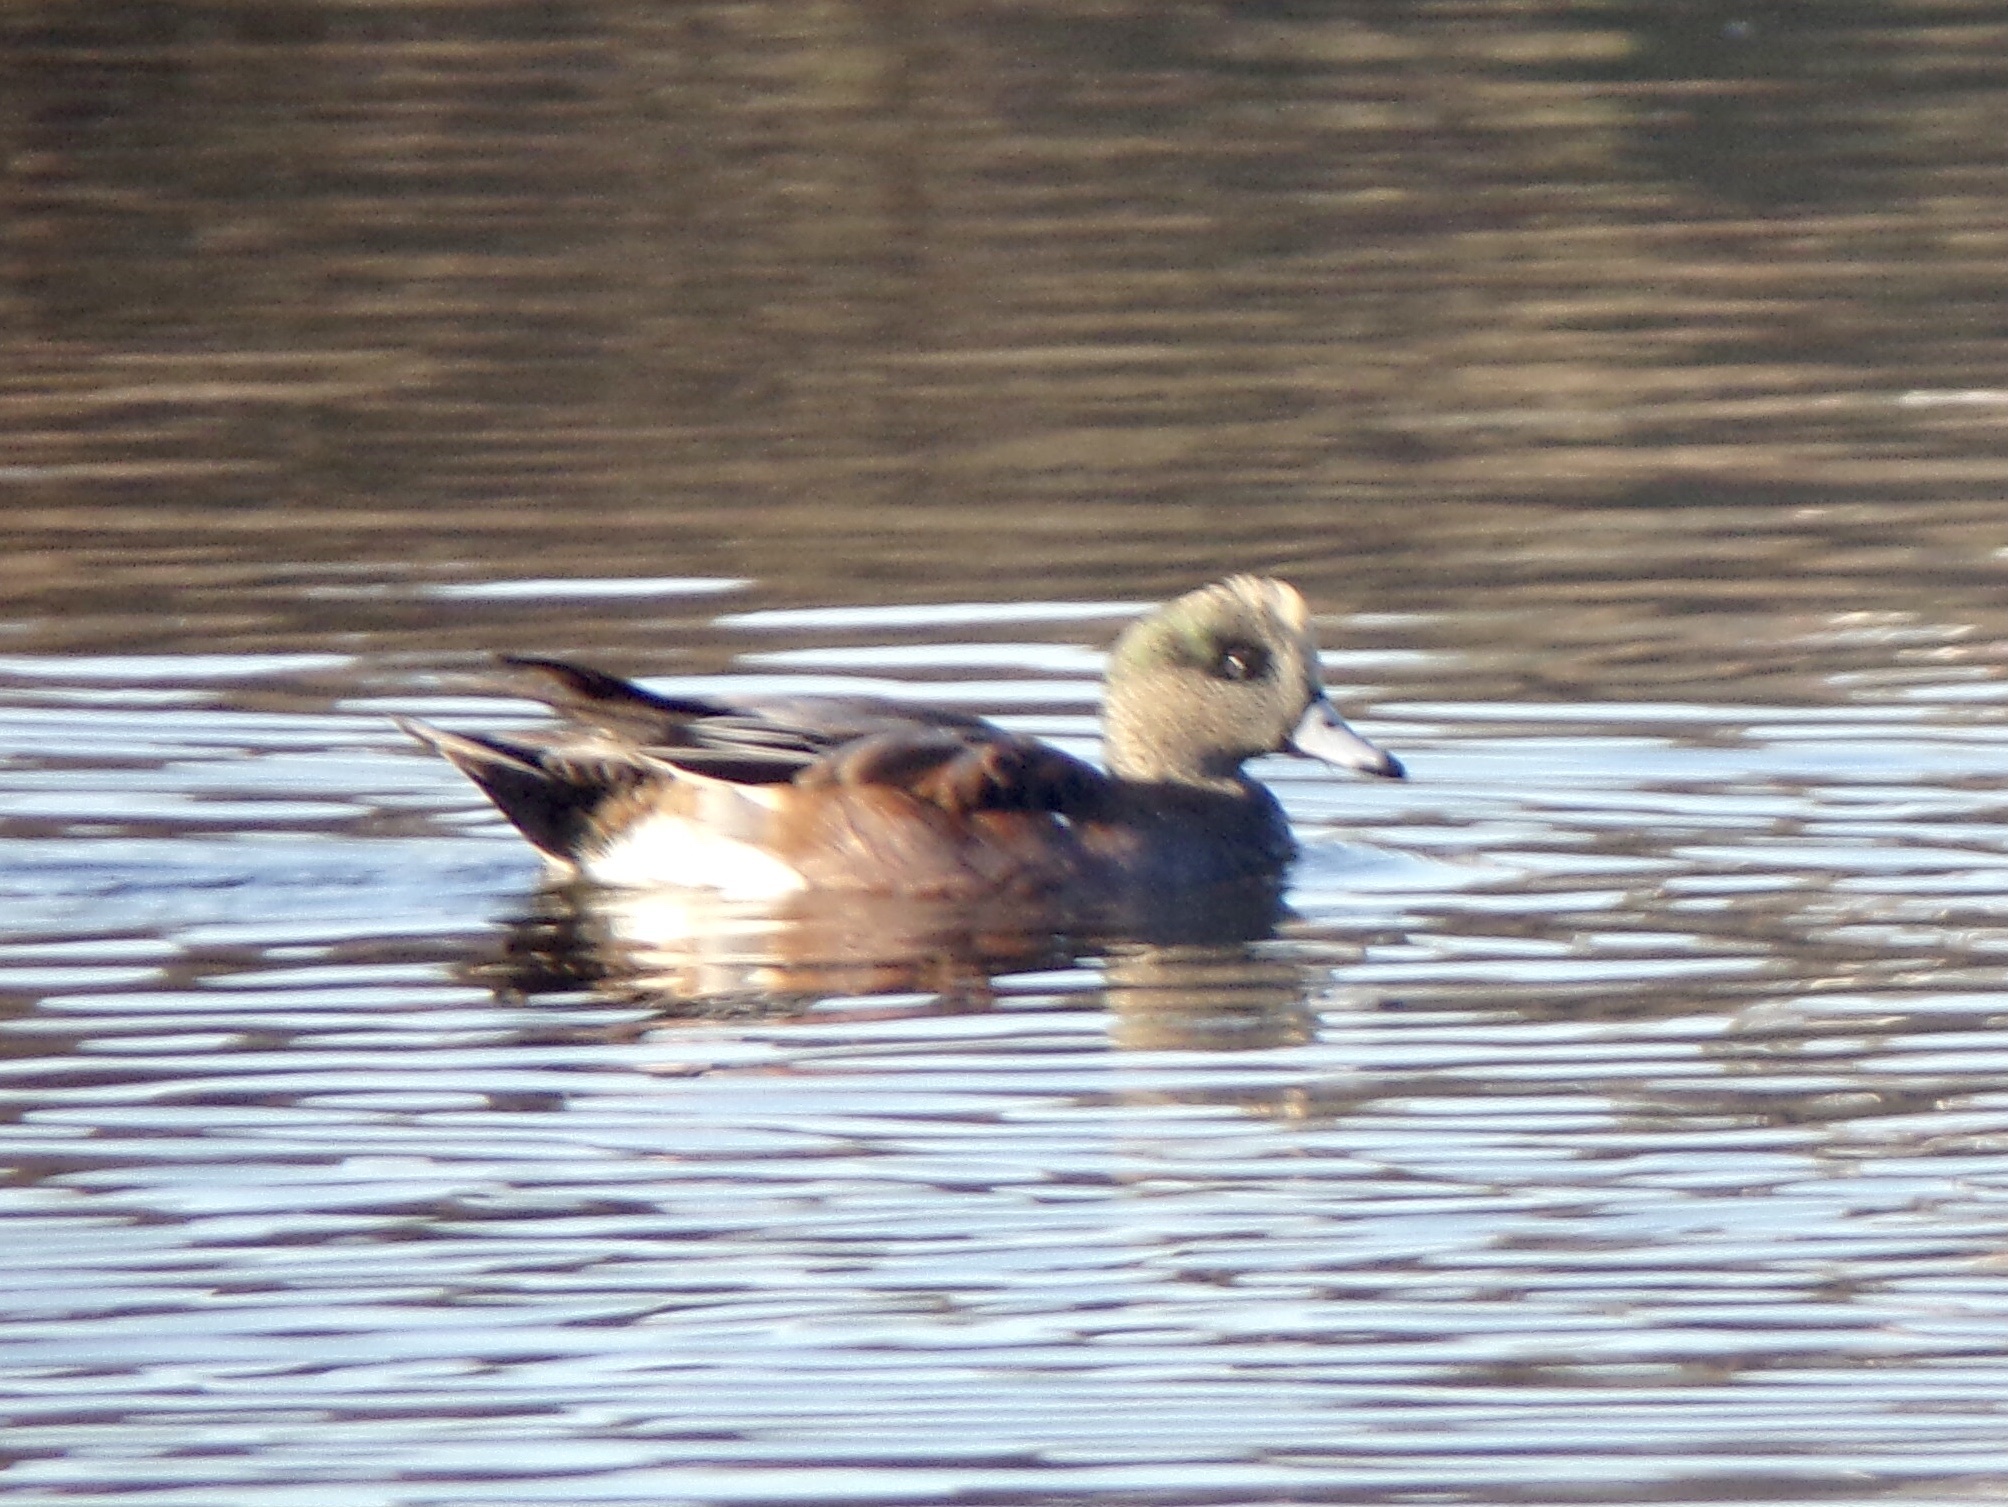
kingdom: Animalia
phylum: Chordata
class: Aves
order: Anseriformes
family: Anatidae
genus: Mareca
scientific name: Mareca americana
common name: American wigeon
